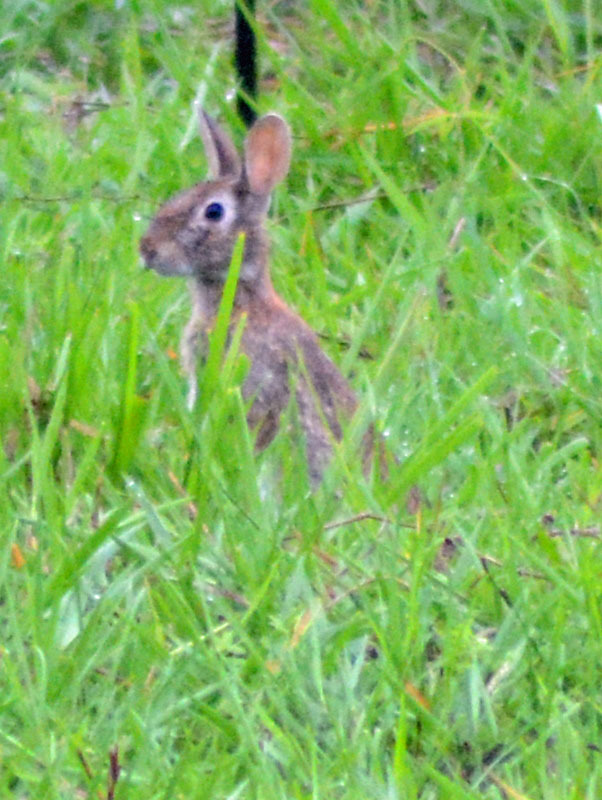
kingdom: Animalia
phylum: Chordata
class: Mammalia
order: Lagomorpha
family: Leporidae
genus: Sylvilagus
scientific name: Sylvilagus floridanus
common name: Eastern cottontail
